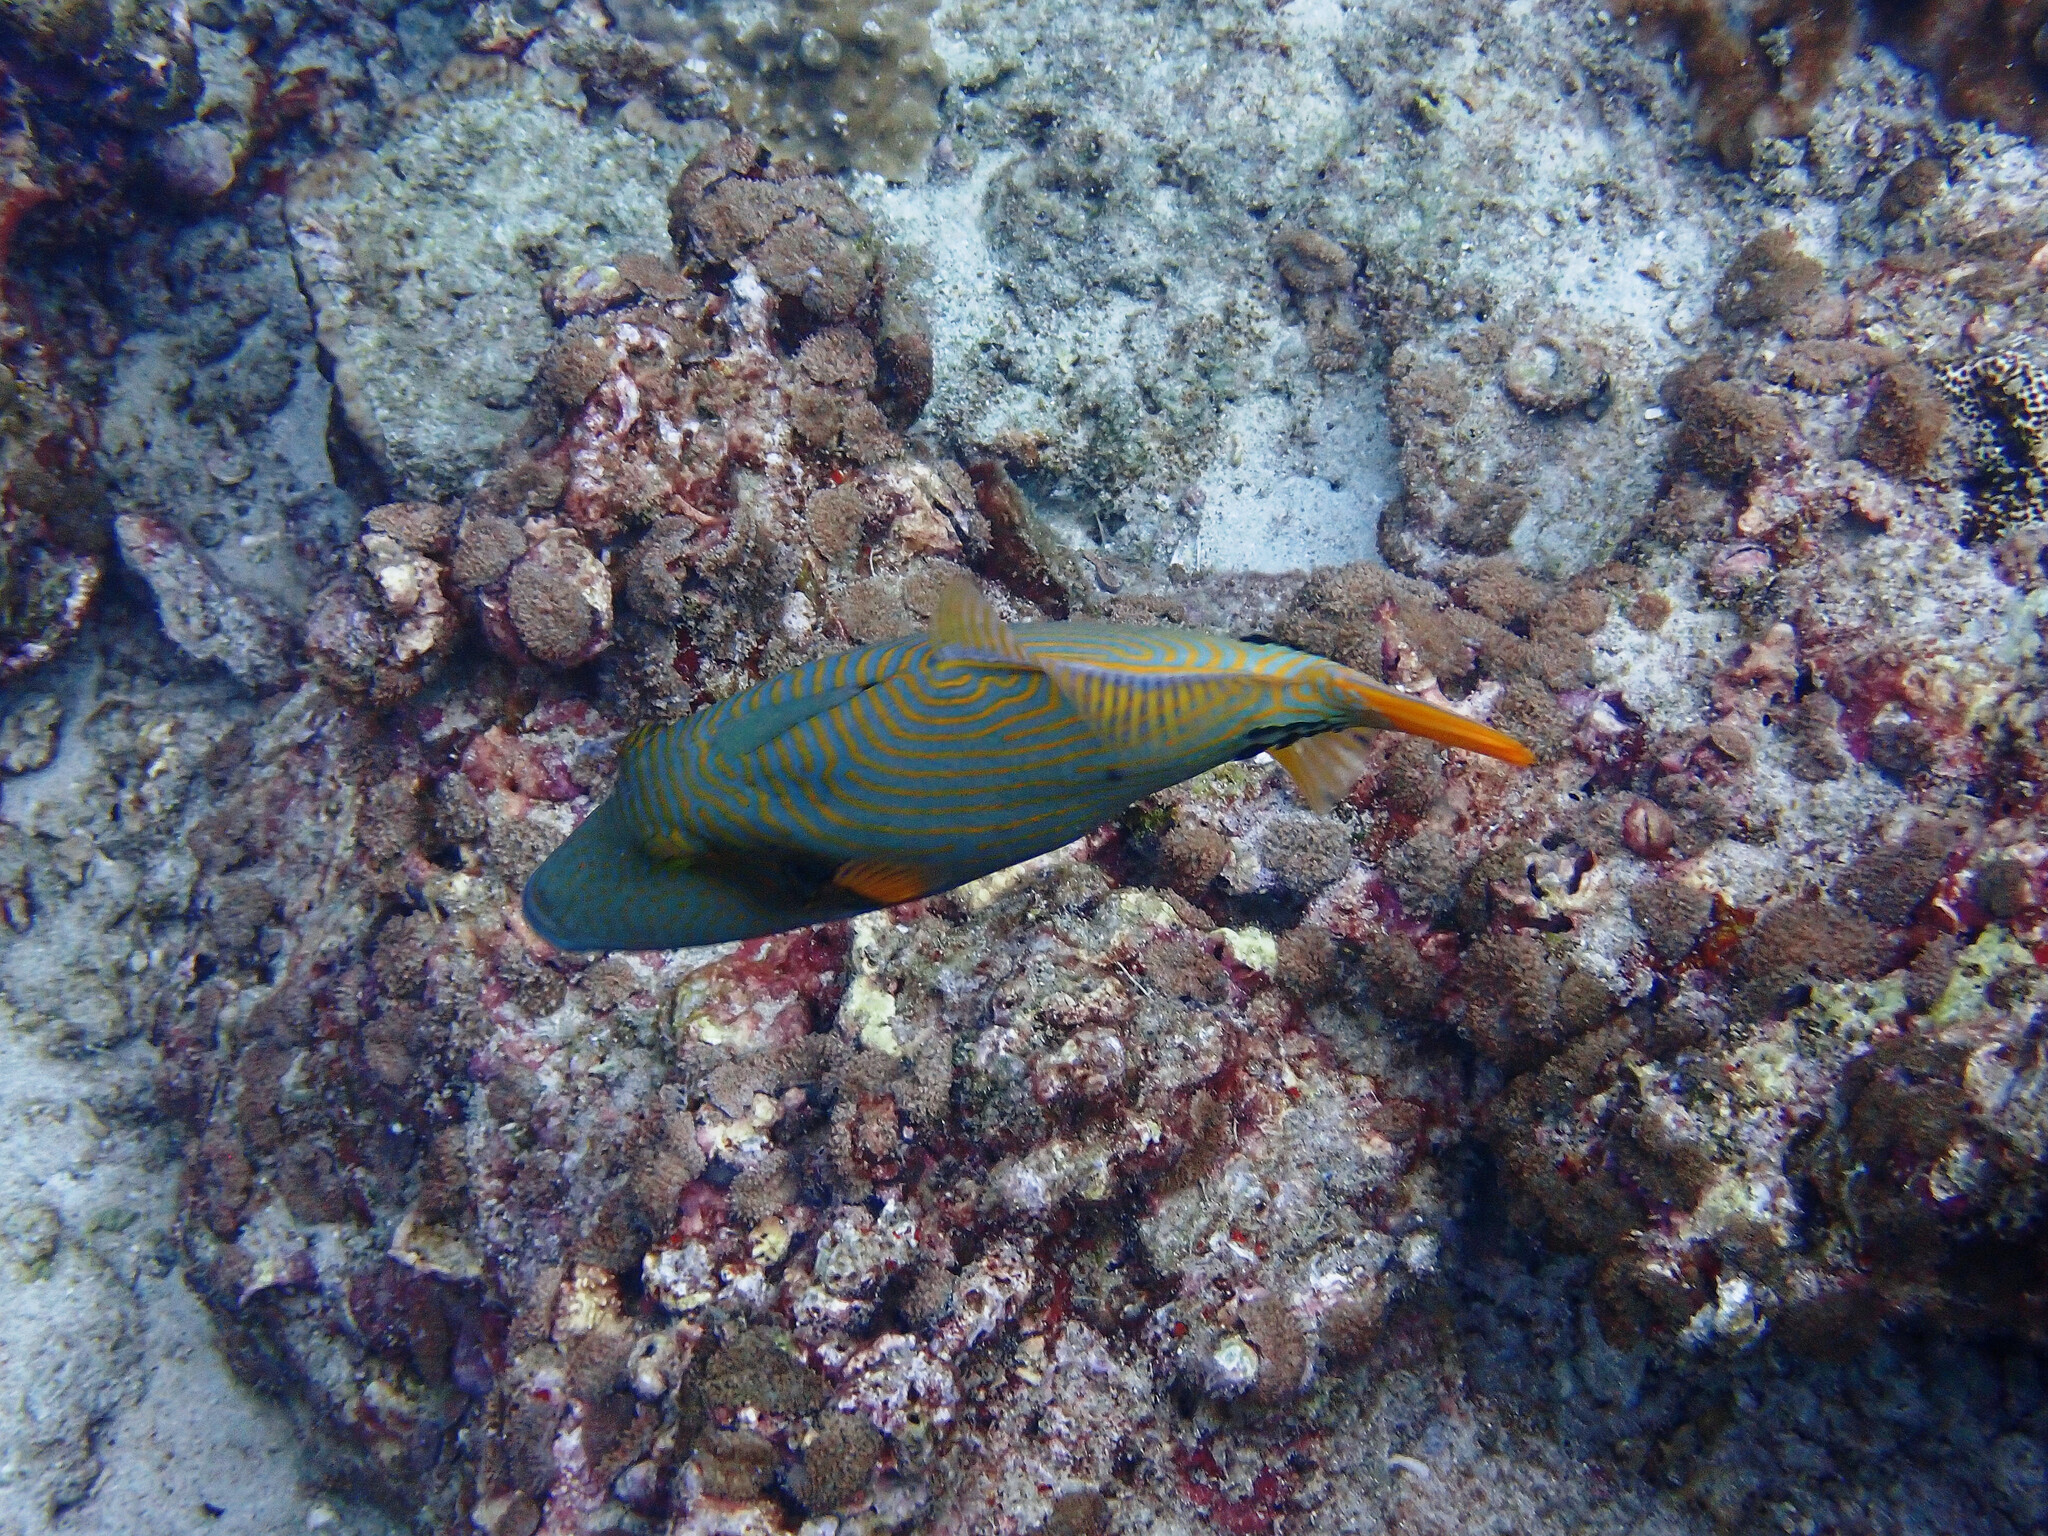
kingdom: Animalia
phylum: Chordata
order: Tetraodontiformes
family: Balistidae
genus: Balistapus
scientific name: Balistapus undulatus
